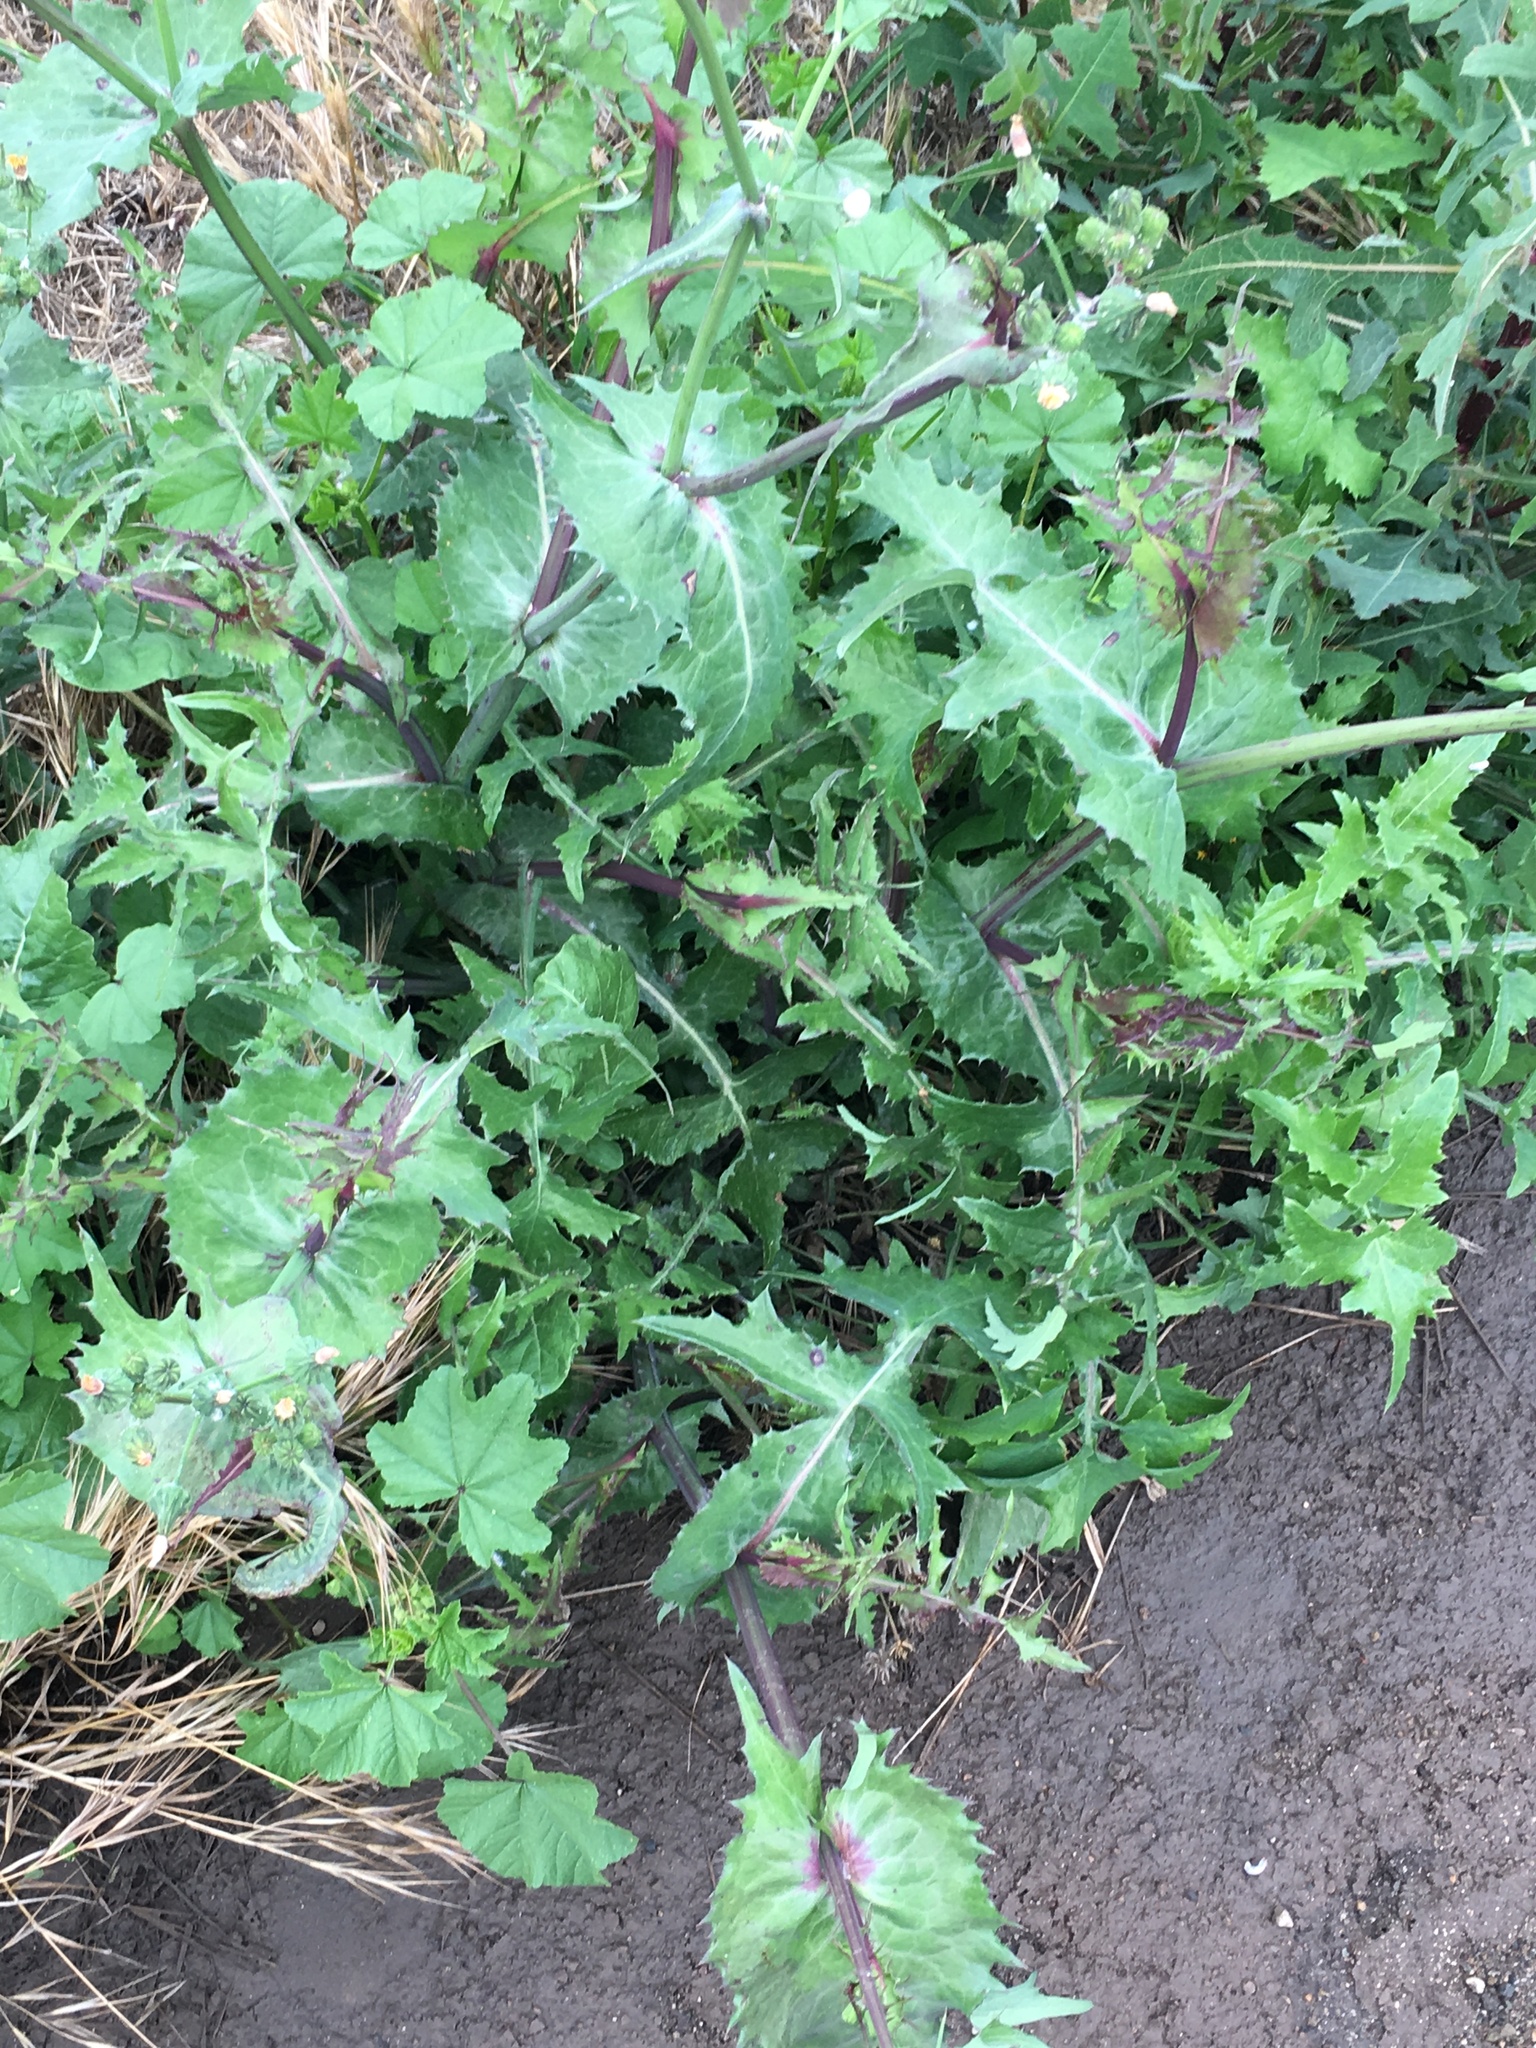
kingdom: Plantae
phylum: Tracheophyta
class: Magnoliopsida
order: Asterales
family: Asteraceae
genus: Sonchus
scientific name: Sonchus oleraceus
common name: Common sowthistle
